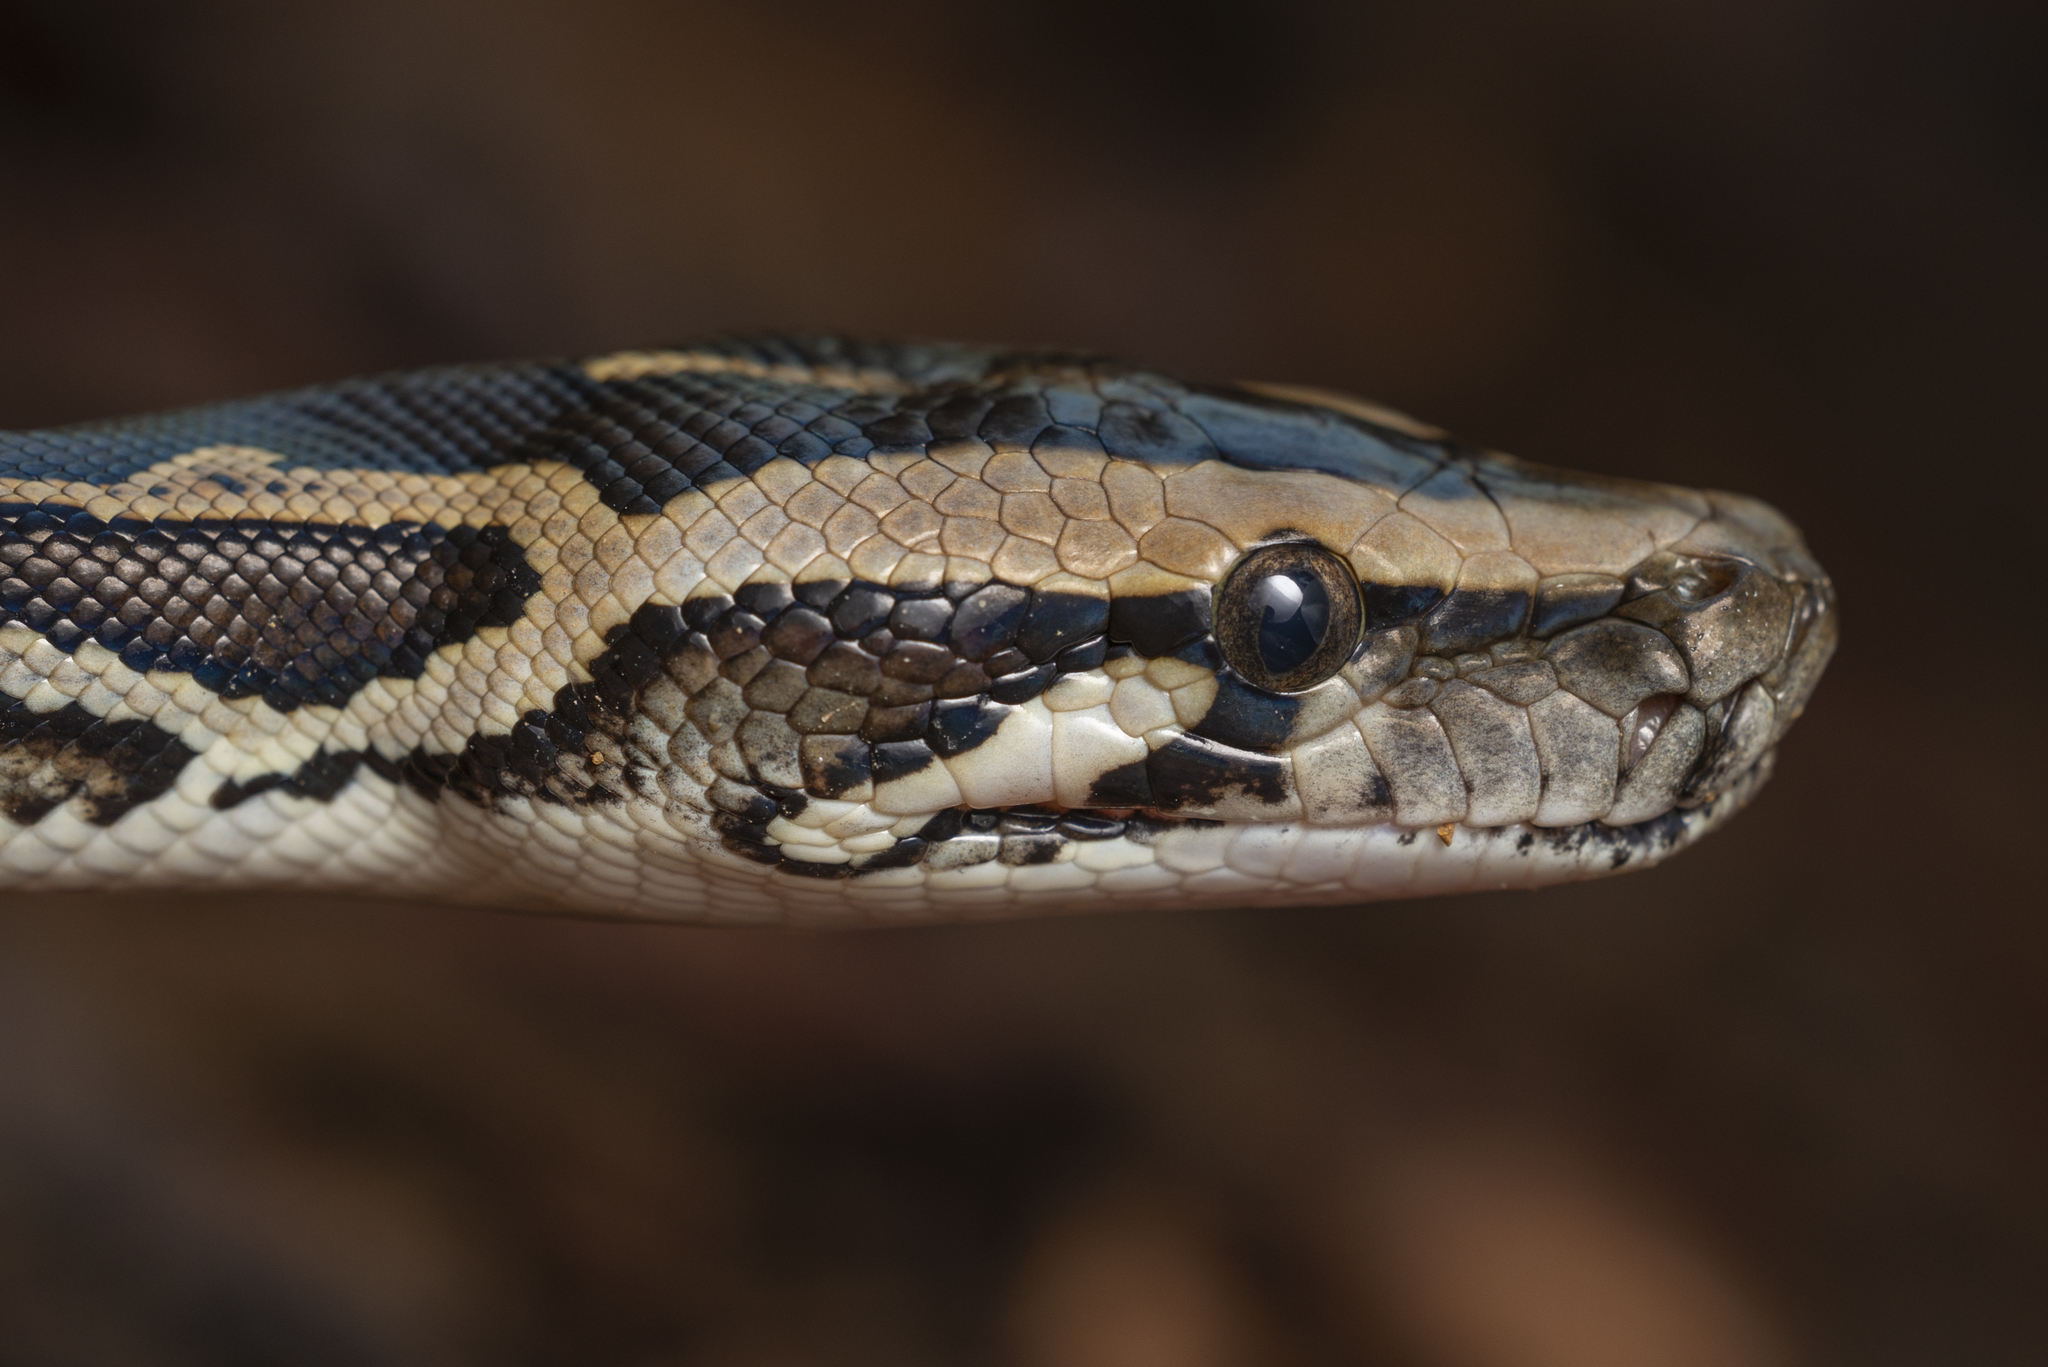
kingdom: Animalia
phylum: Chordata
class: Squamata
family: Pythonidae
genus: Python
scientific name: Python bivittatus
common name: Burmese python
